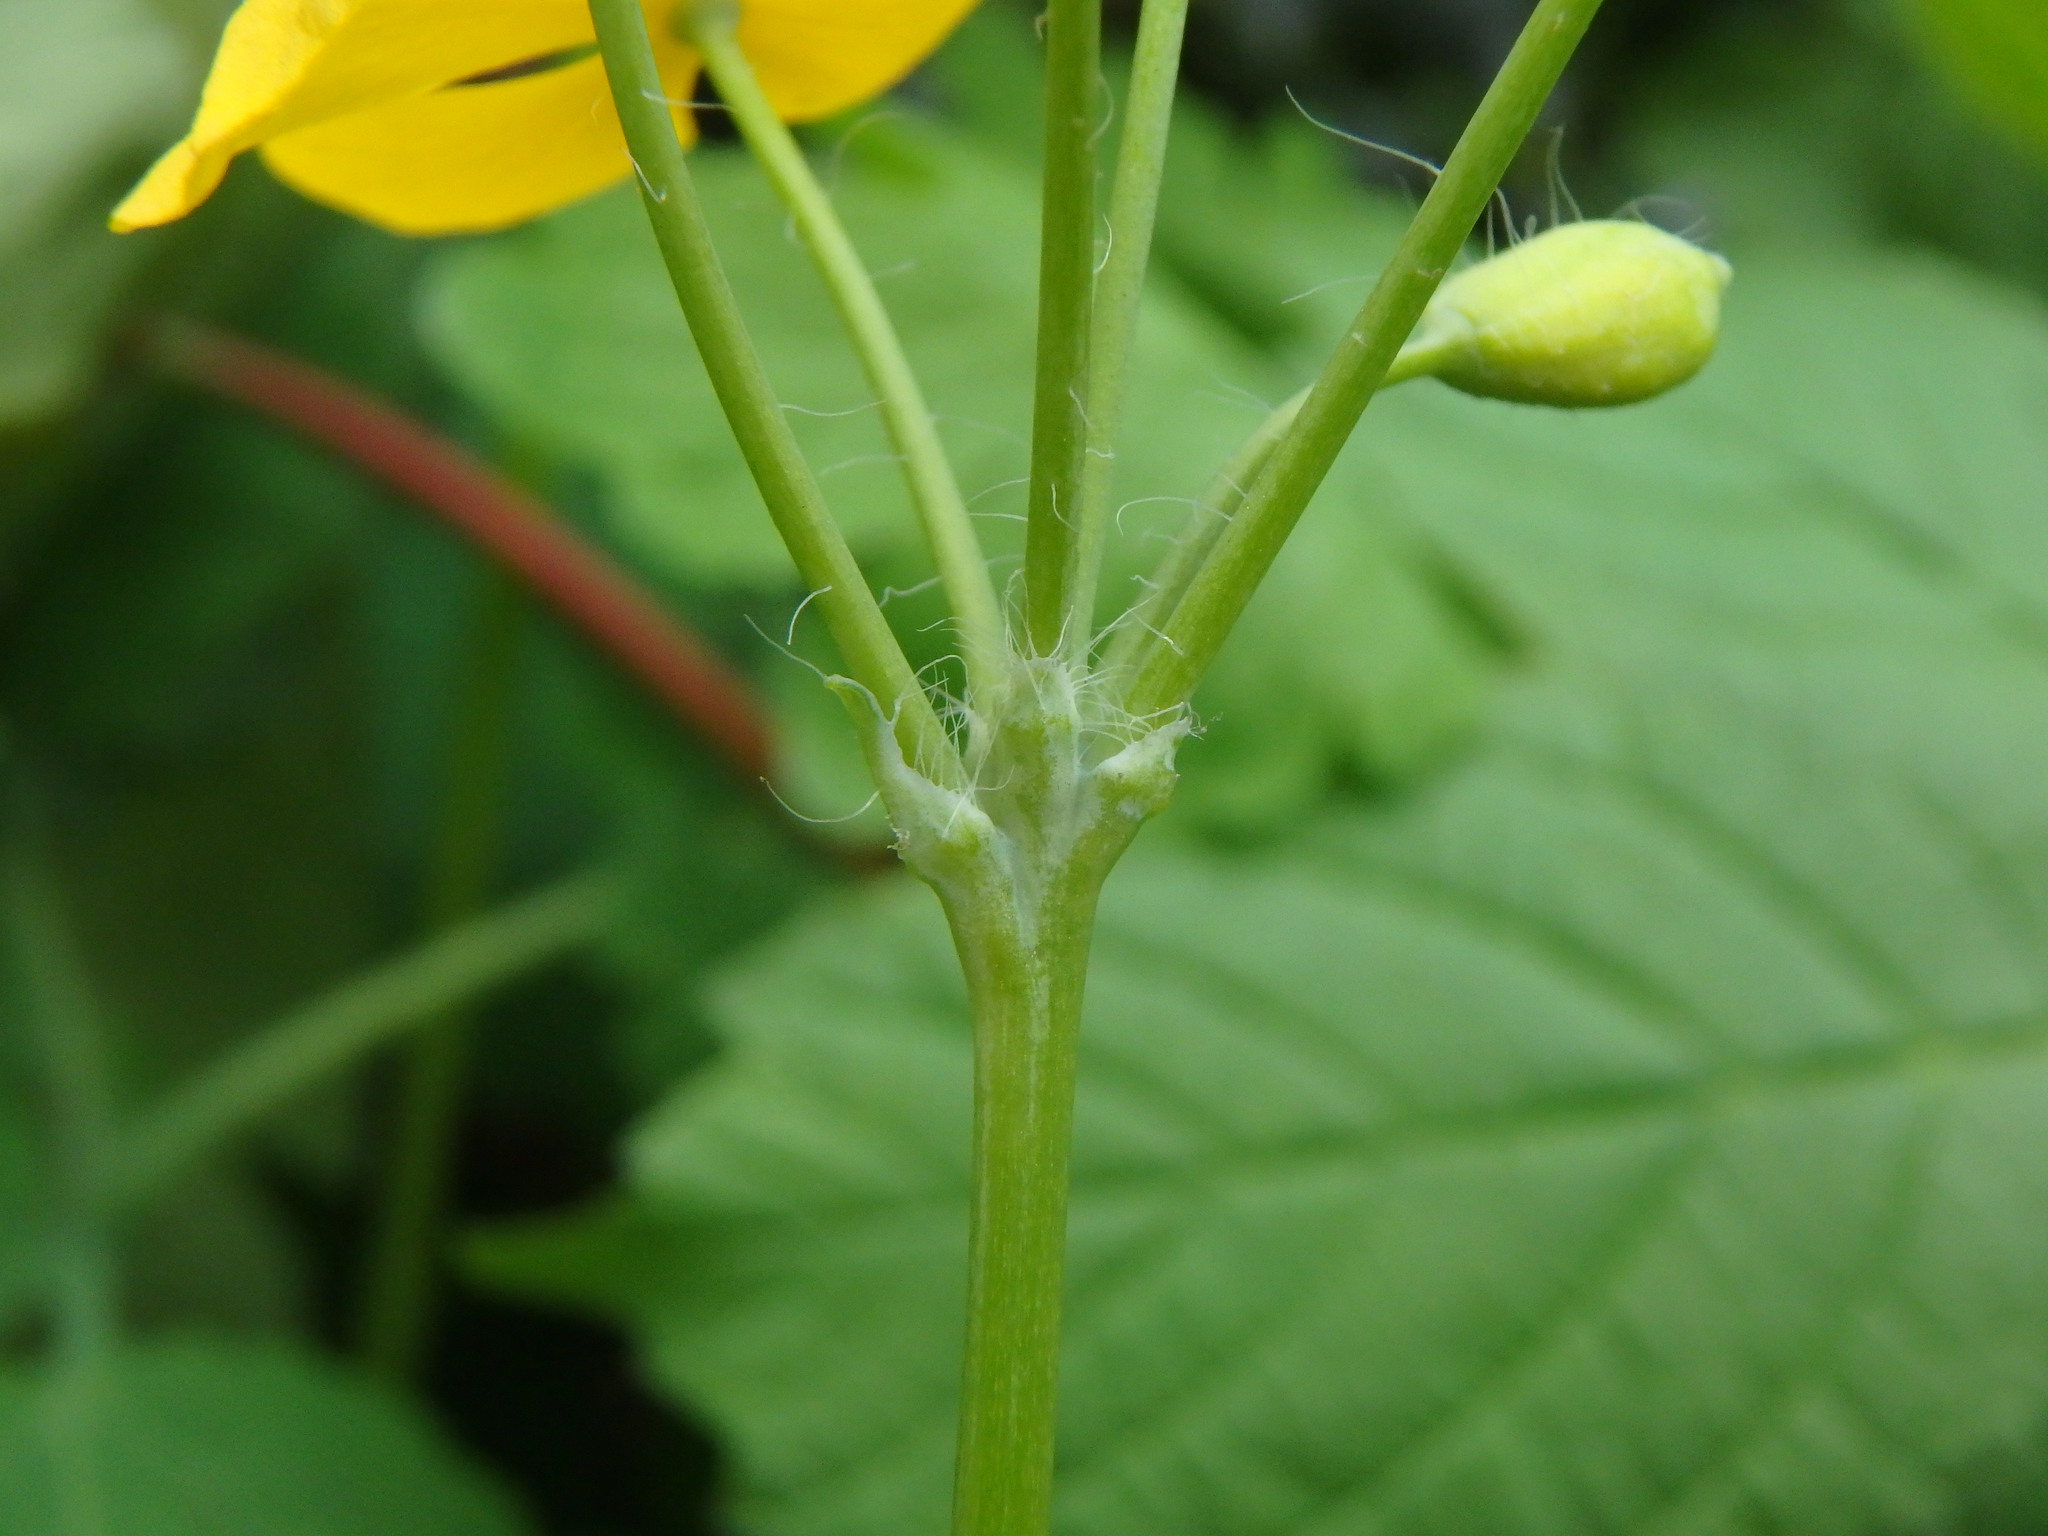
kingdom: Plantae
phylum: Tracheophyta
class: Magnoliopsida
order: Ranunculales
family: Papaveraceae
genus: Chelidonium
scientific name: Chelidonium majus
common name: Greater celandine
